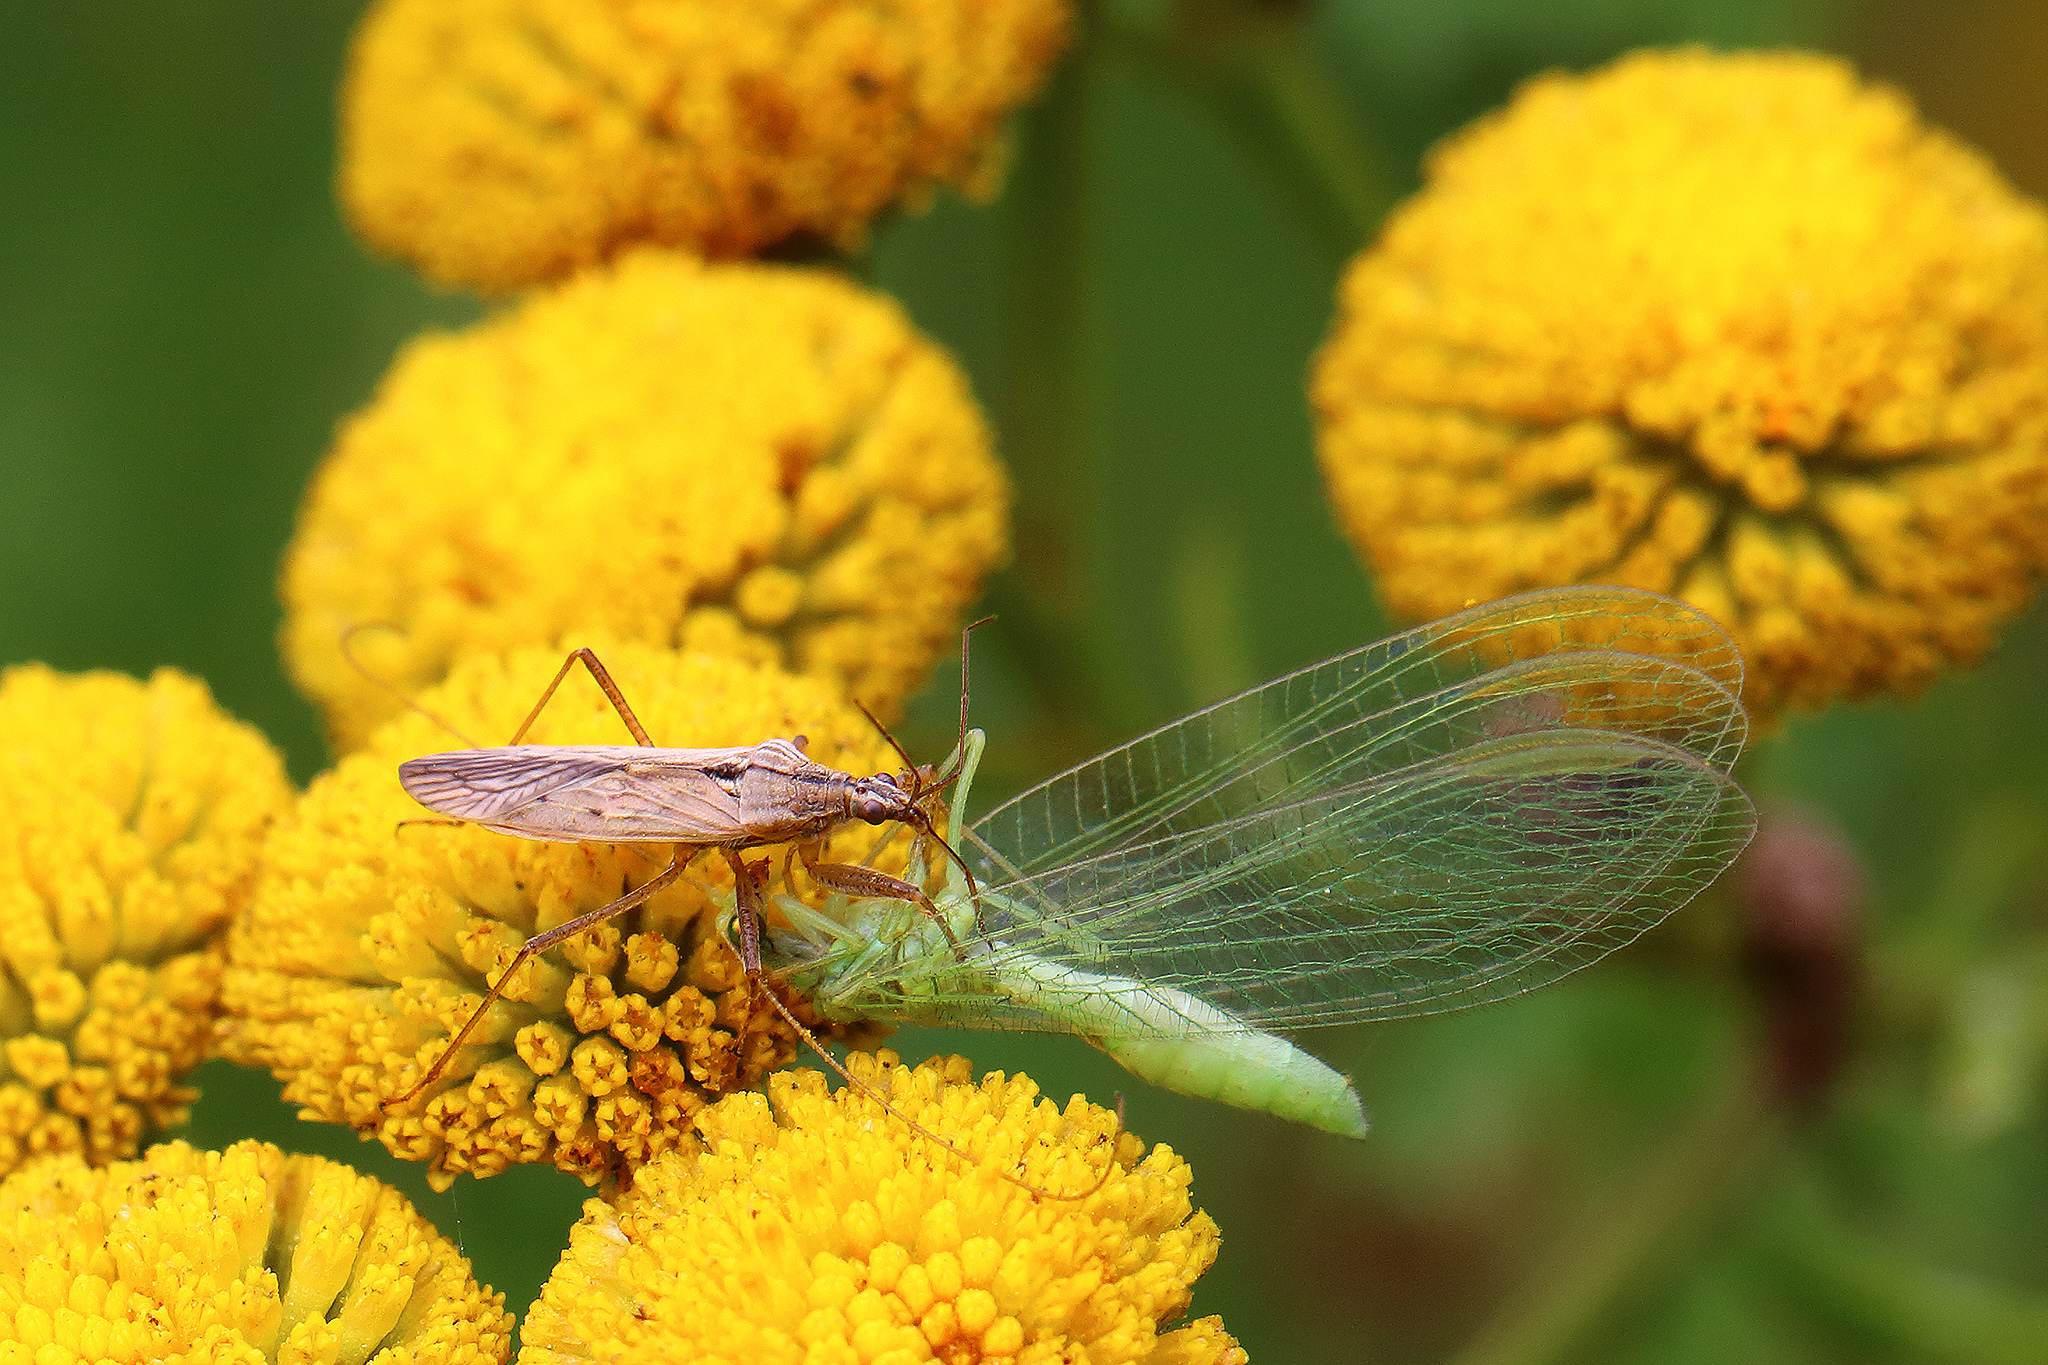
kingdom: Animalia
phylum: Arthropoda
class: Insecta
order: Hemiptera
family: Nabidae
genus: Nabis
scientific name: Nabis ferus
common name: Field damsel bug
